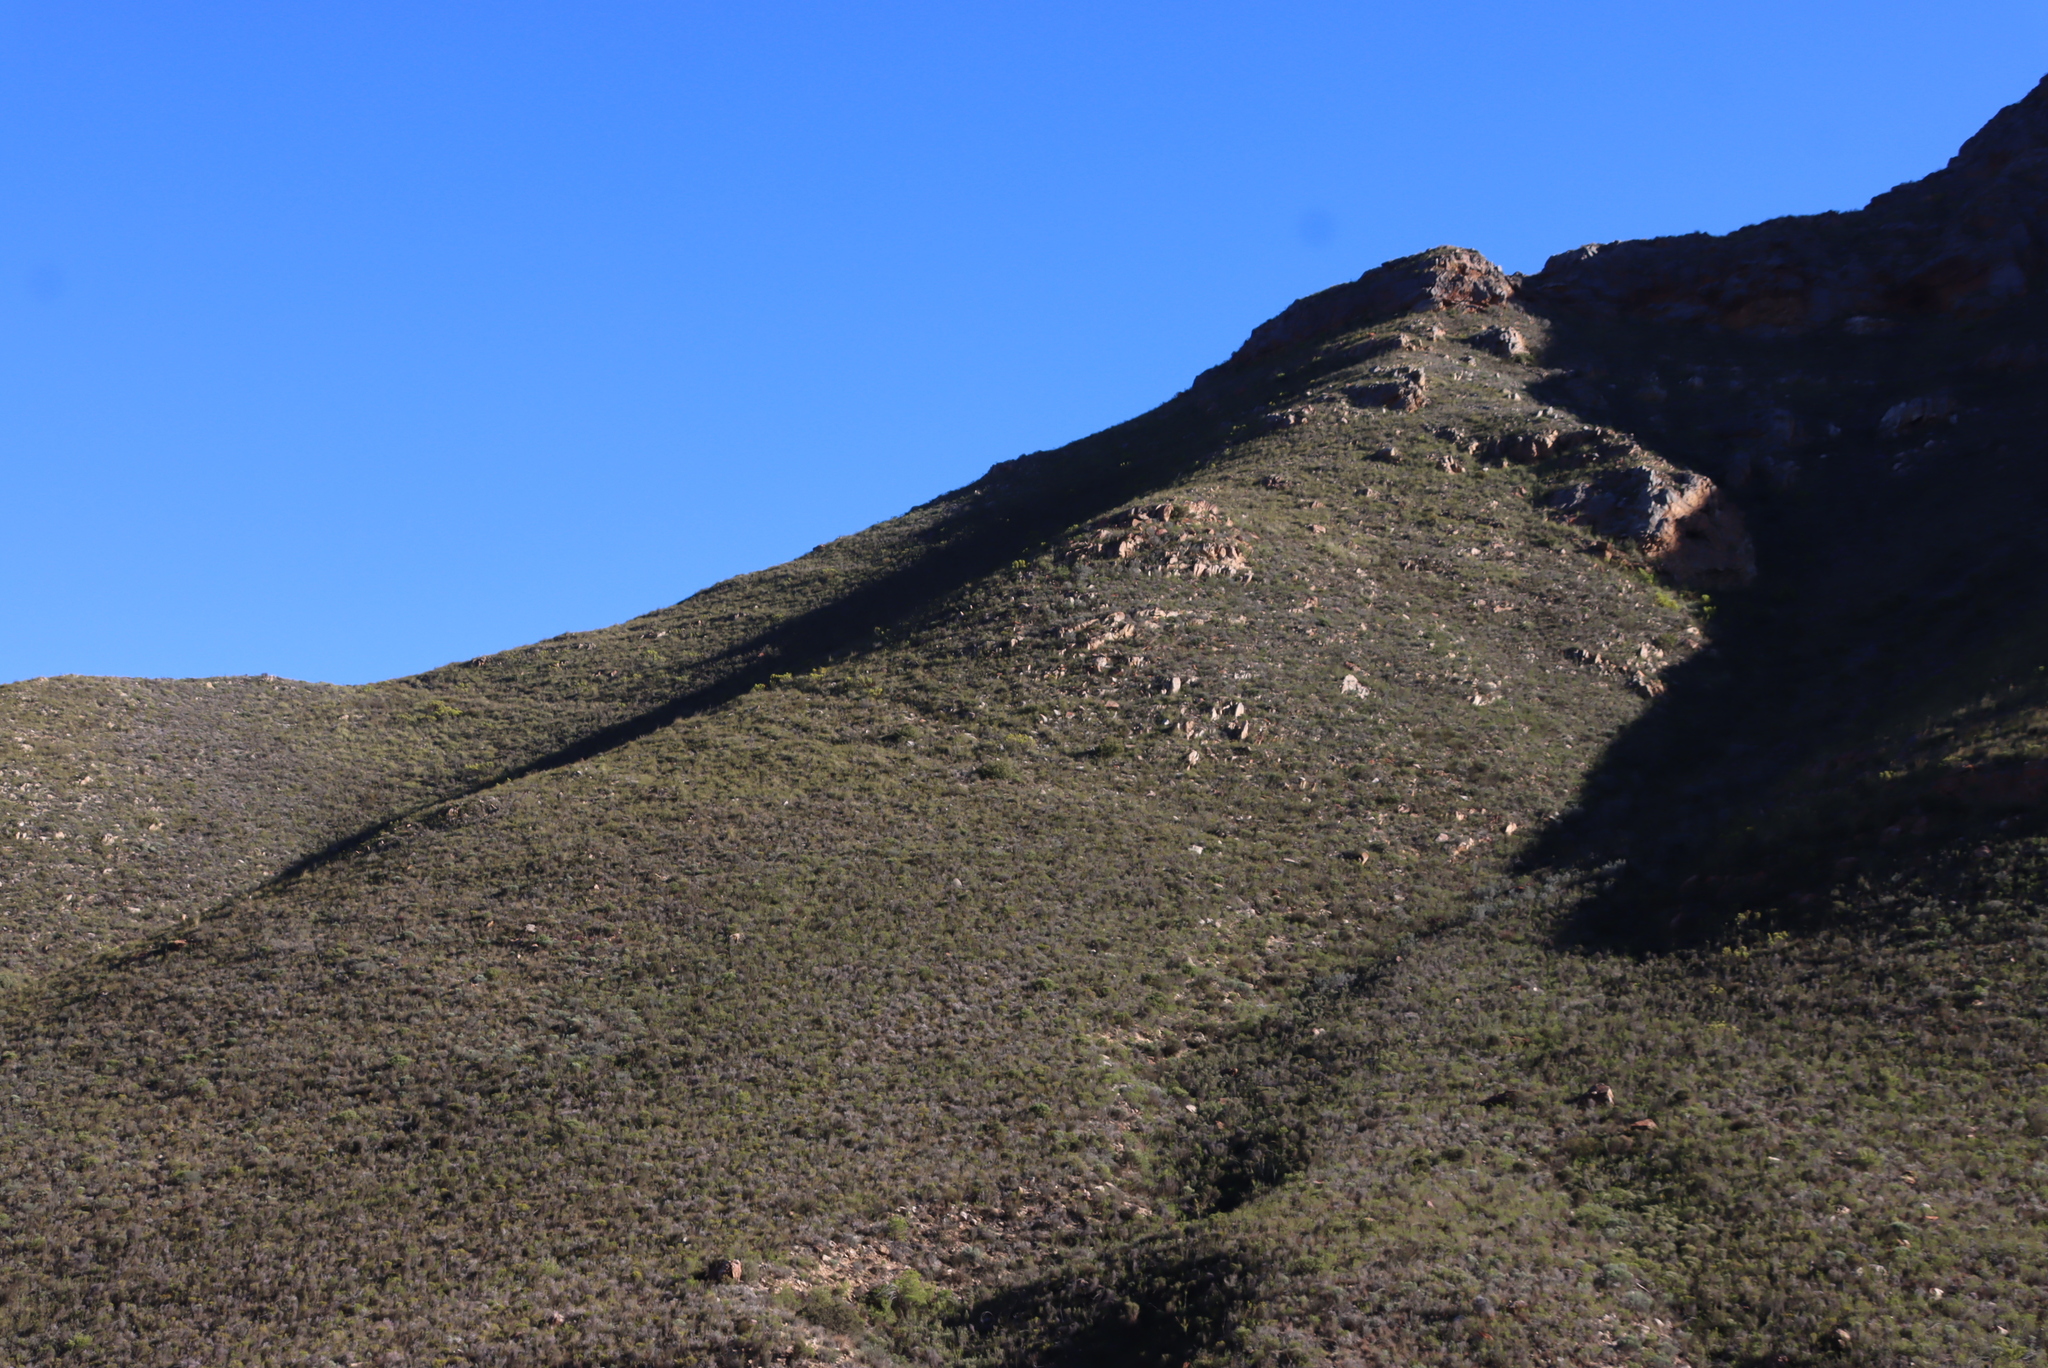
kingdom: Plantae
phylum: Tracheophyta
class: Magnoliopsida
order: Proteales
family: Proteaceae
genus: Protea
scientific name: Protea lorifolia
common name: Strap-leaved protea
